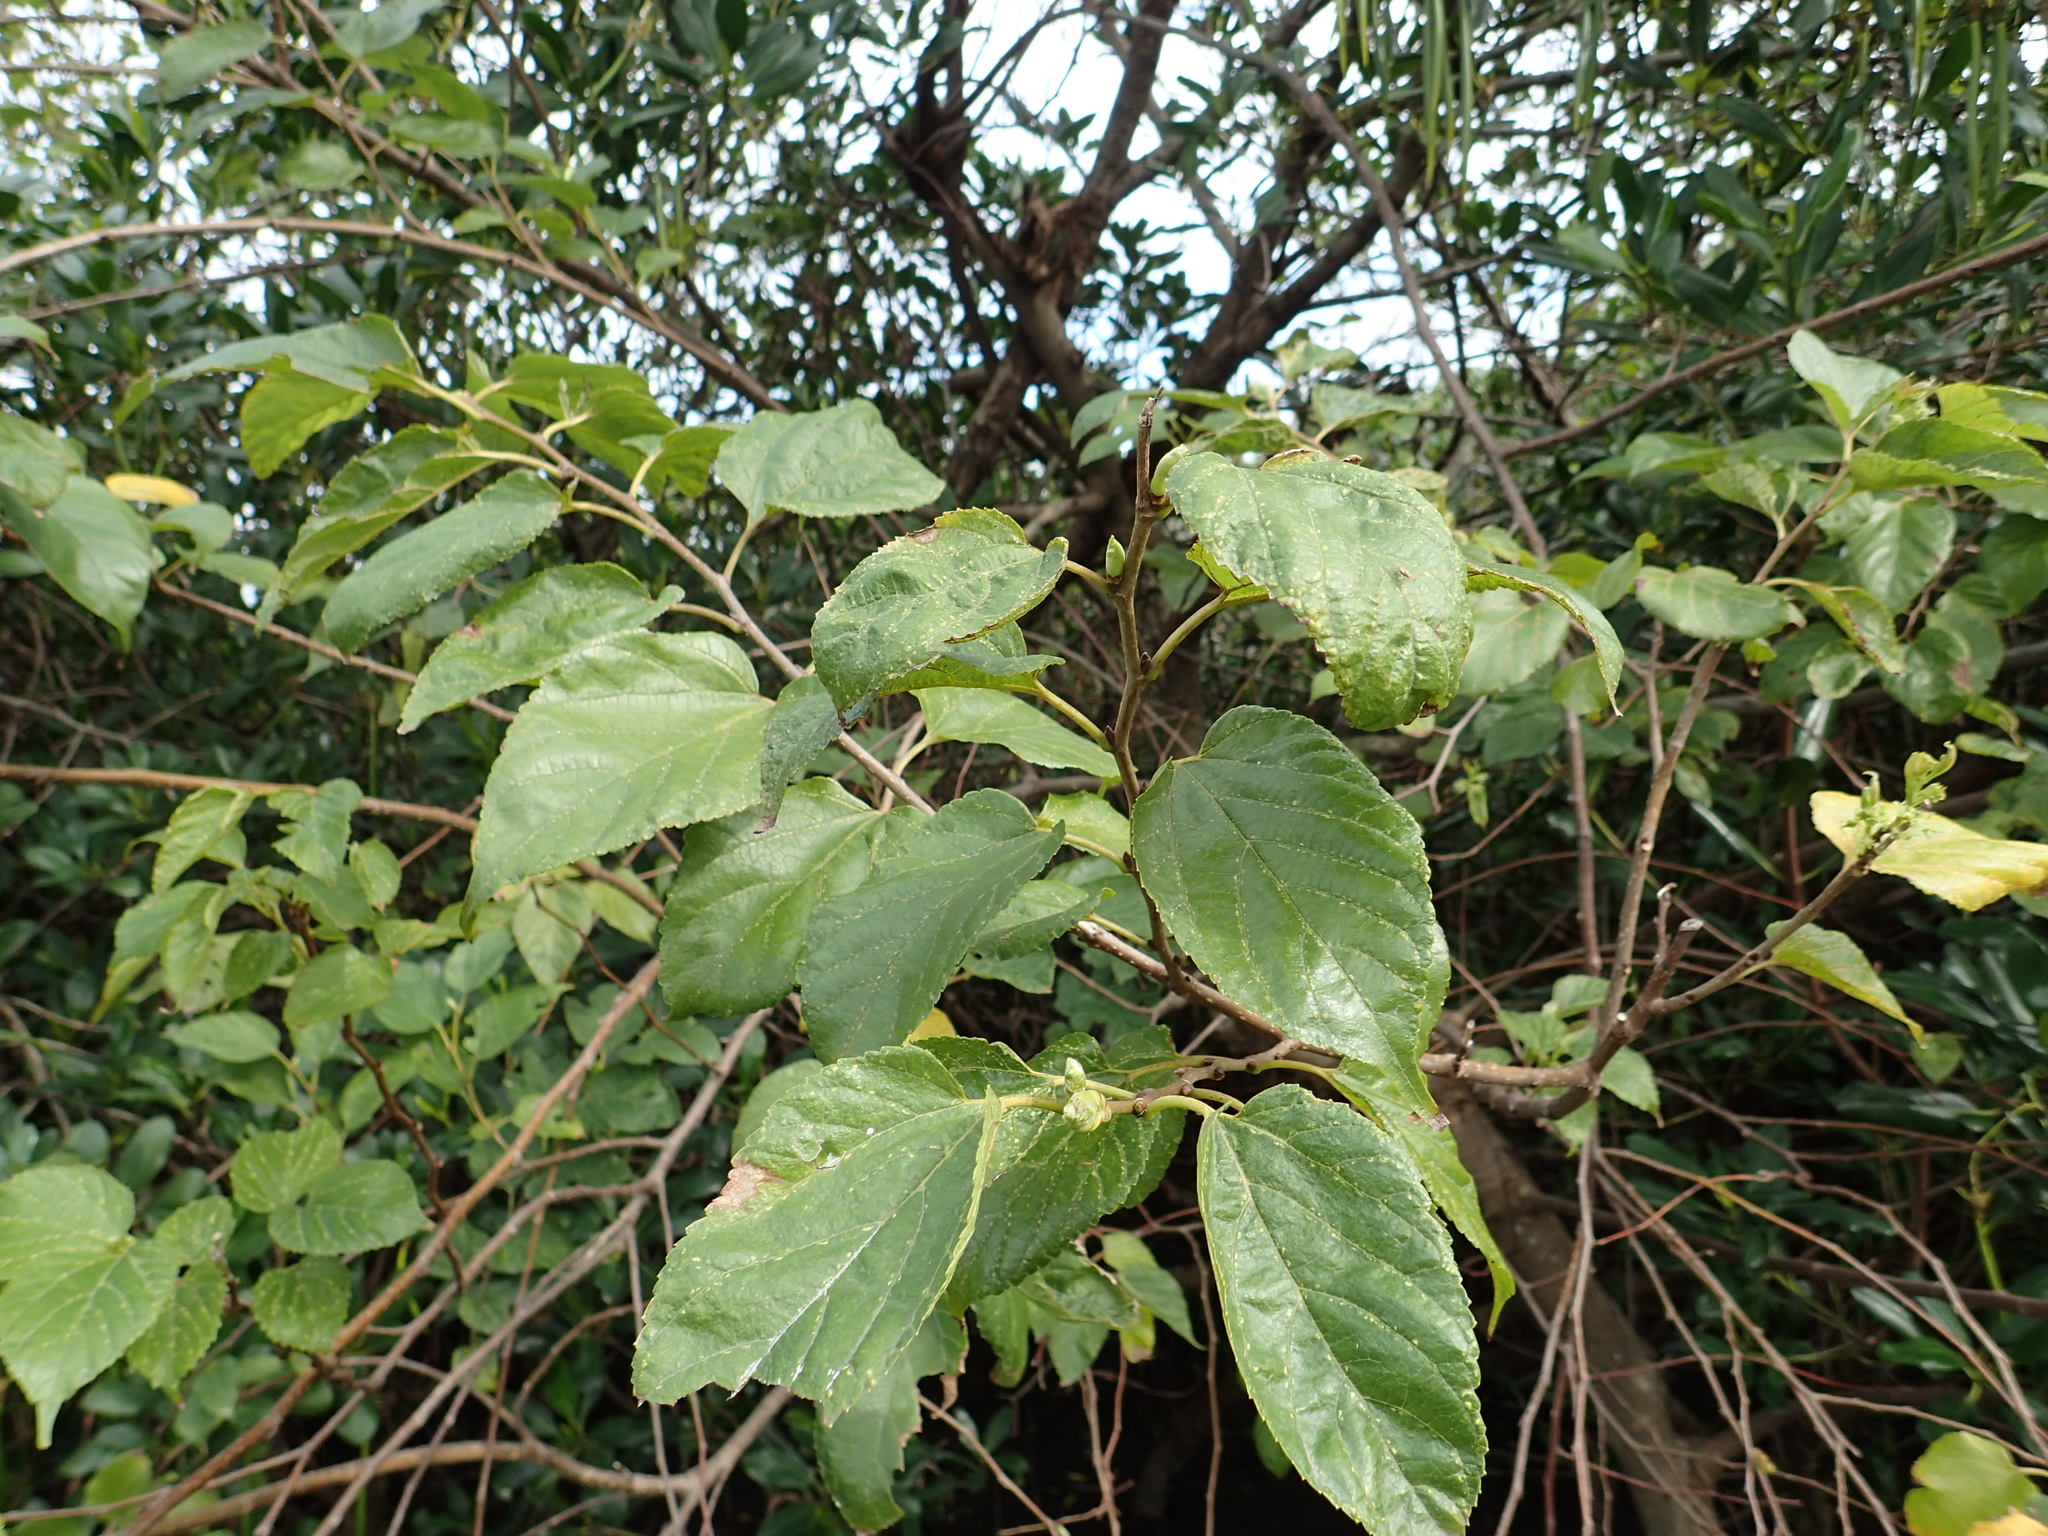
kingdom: Plantae
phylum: Tracheophyta
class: Magnoliopsida
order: Rosales
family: Moraceae
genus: Morus
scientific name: Morus indica
